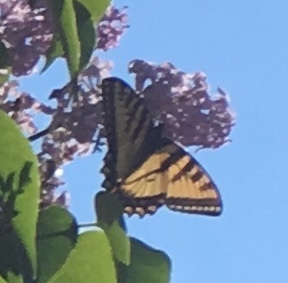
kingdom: Animalia
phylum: Arthropoda
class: Insecta
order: Lepidoptera
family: Papilionidae
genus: Papilio
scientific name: Papilio canadensis
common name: Canadian tiger swallowtail
